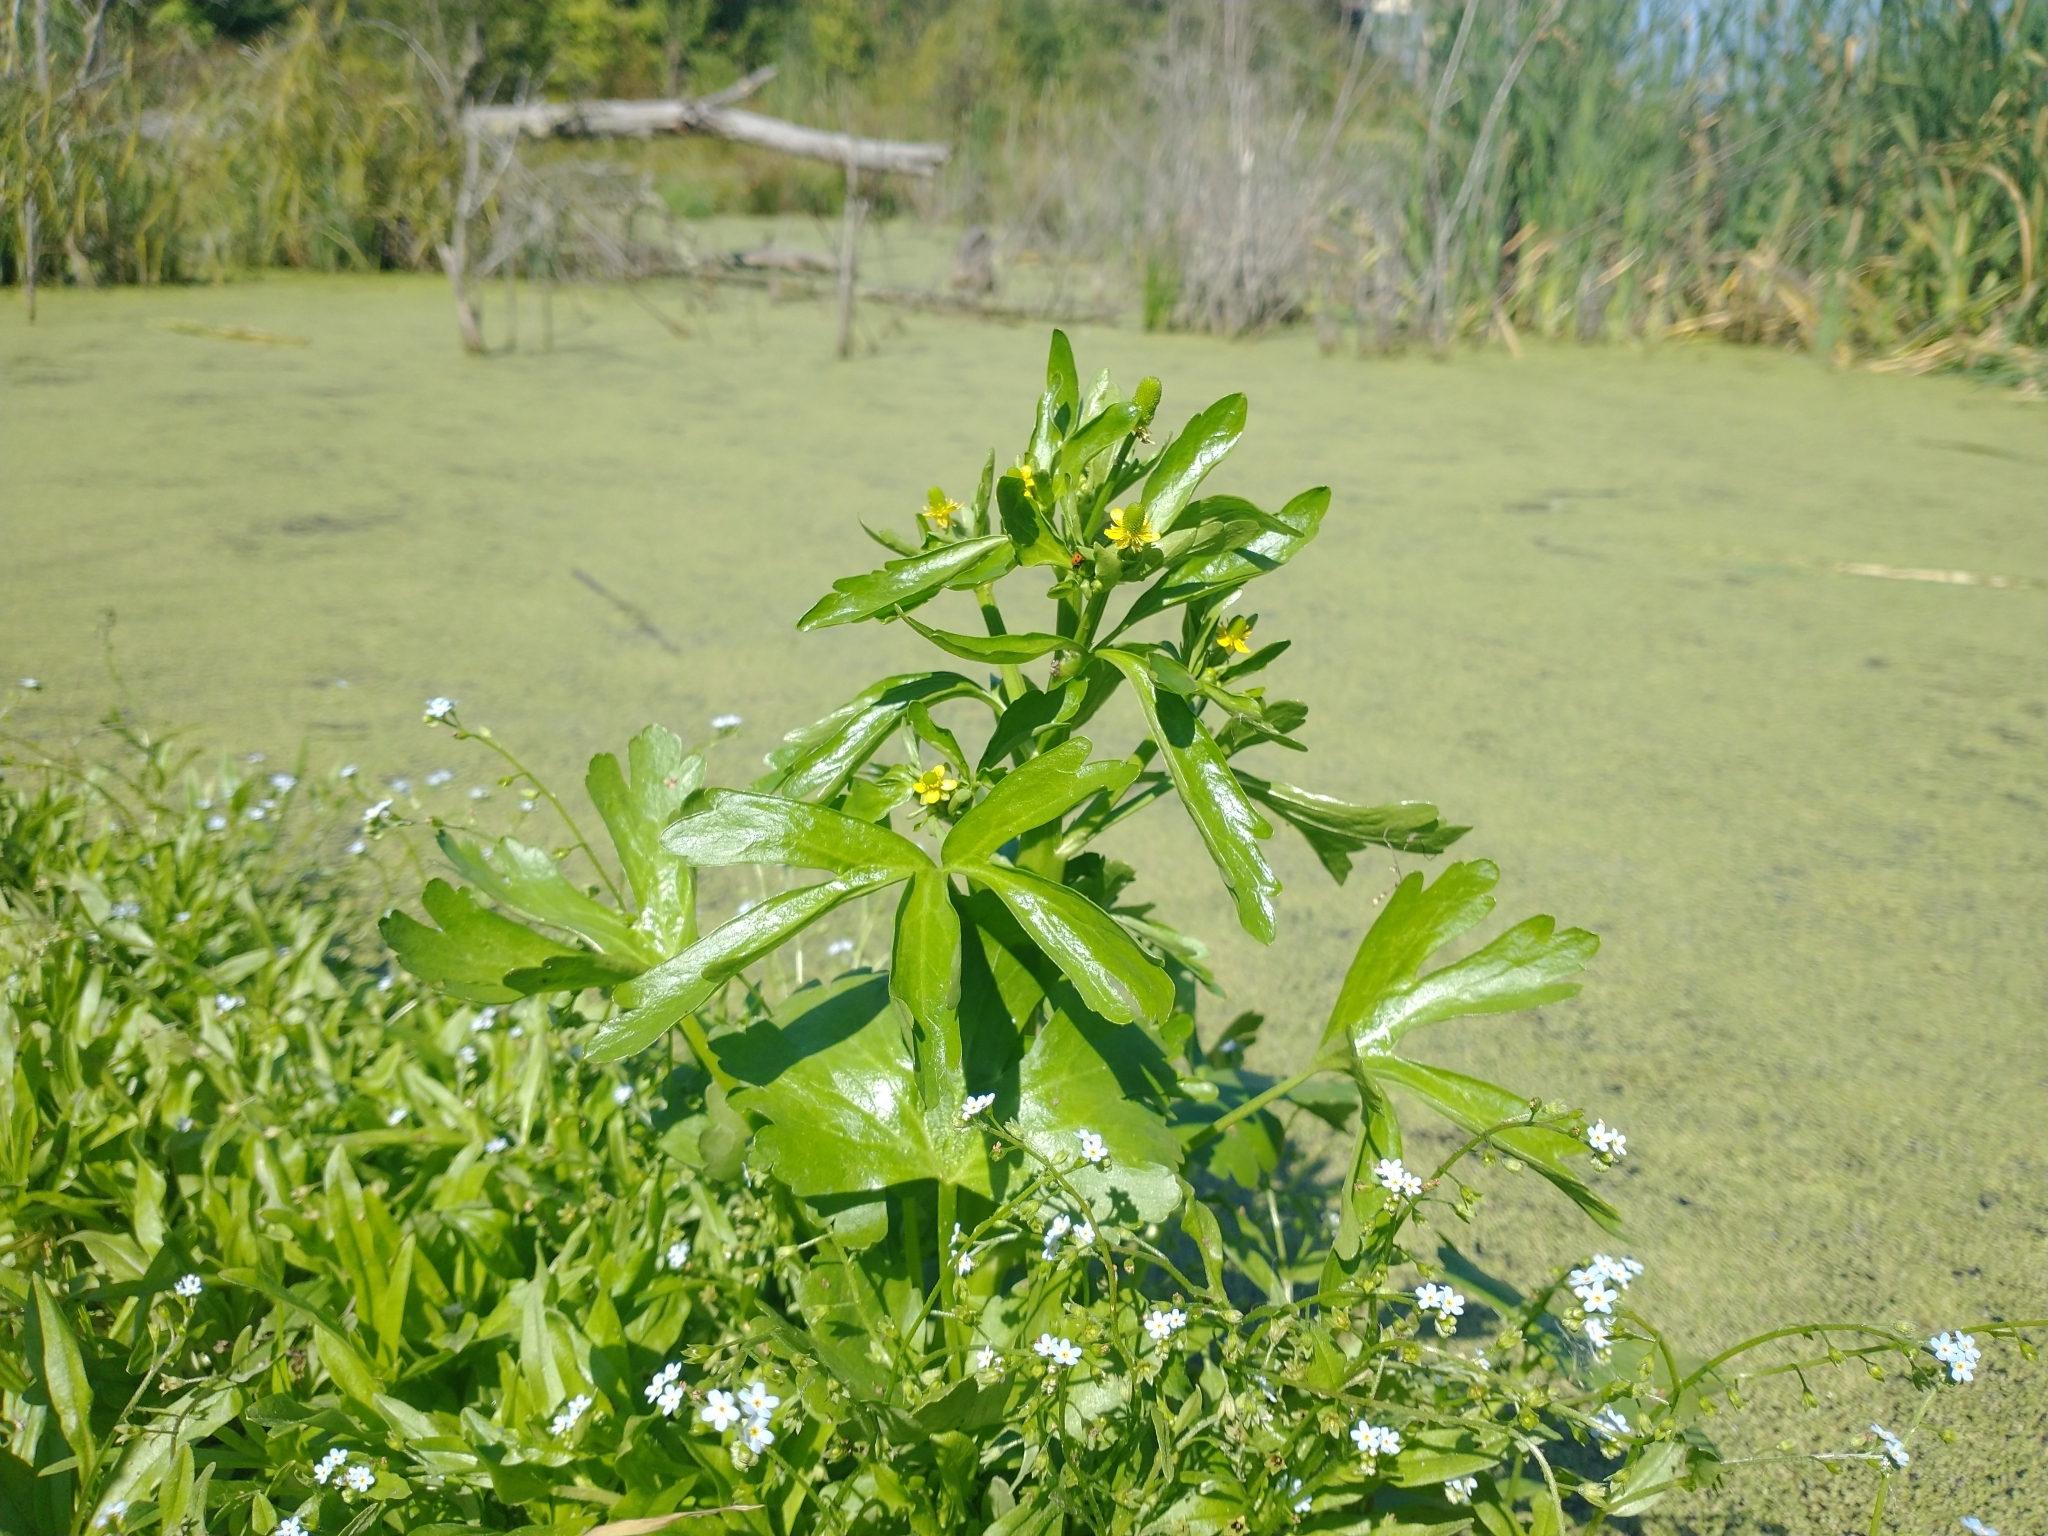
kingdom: Plantae
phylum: Tracheophyta
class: Magnoliopsida
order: Ranunculales
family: Ranunculaceae
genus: Ranunculus
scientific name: Ranunculus sceleratus
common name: Celery-leaved buttercup
